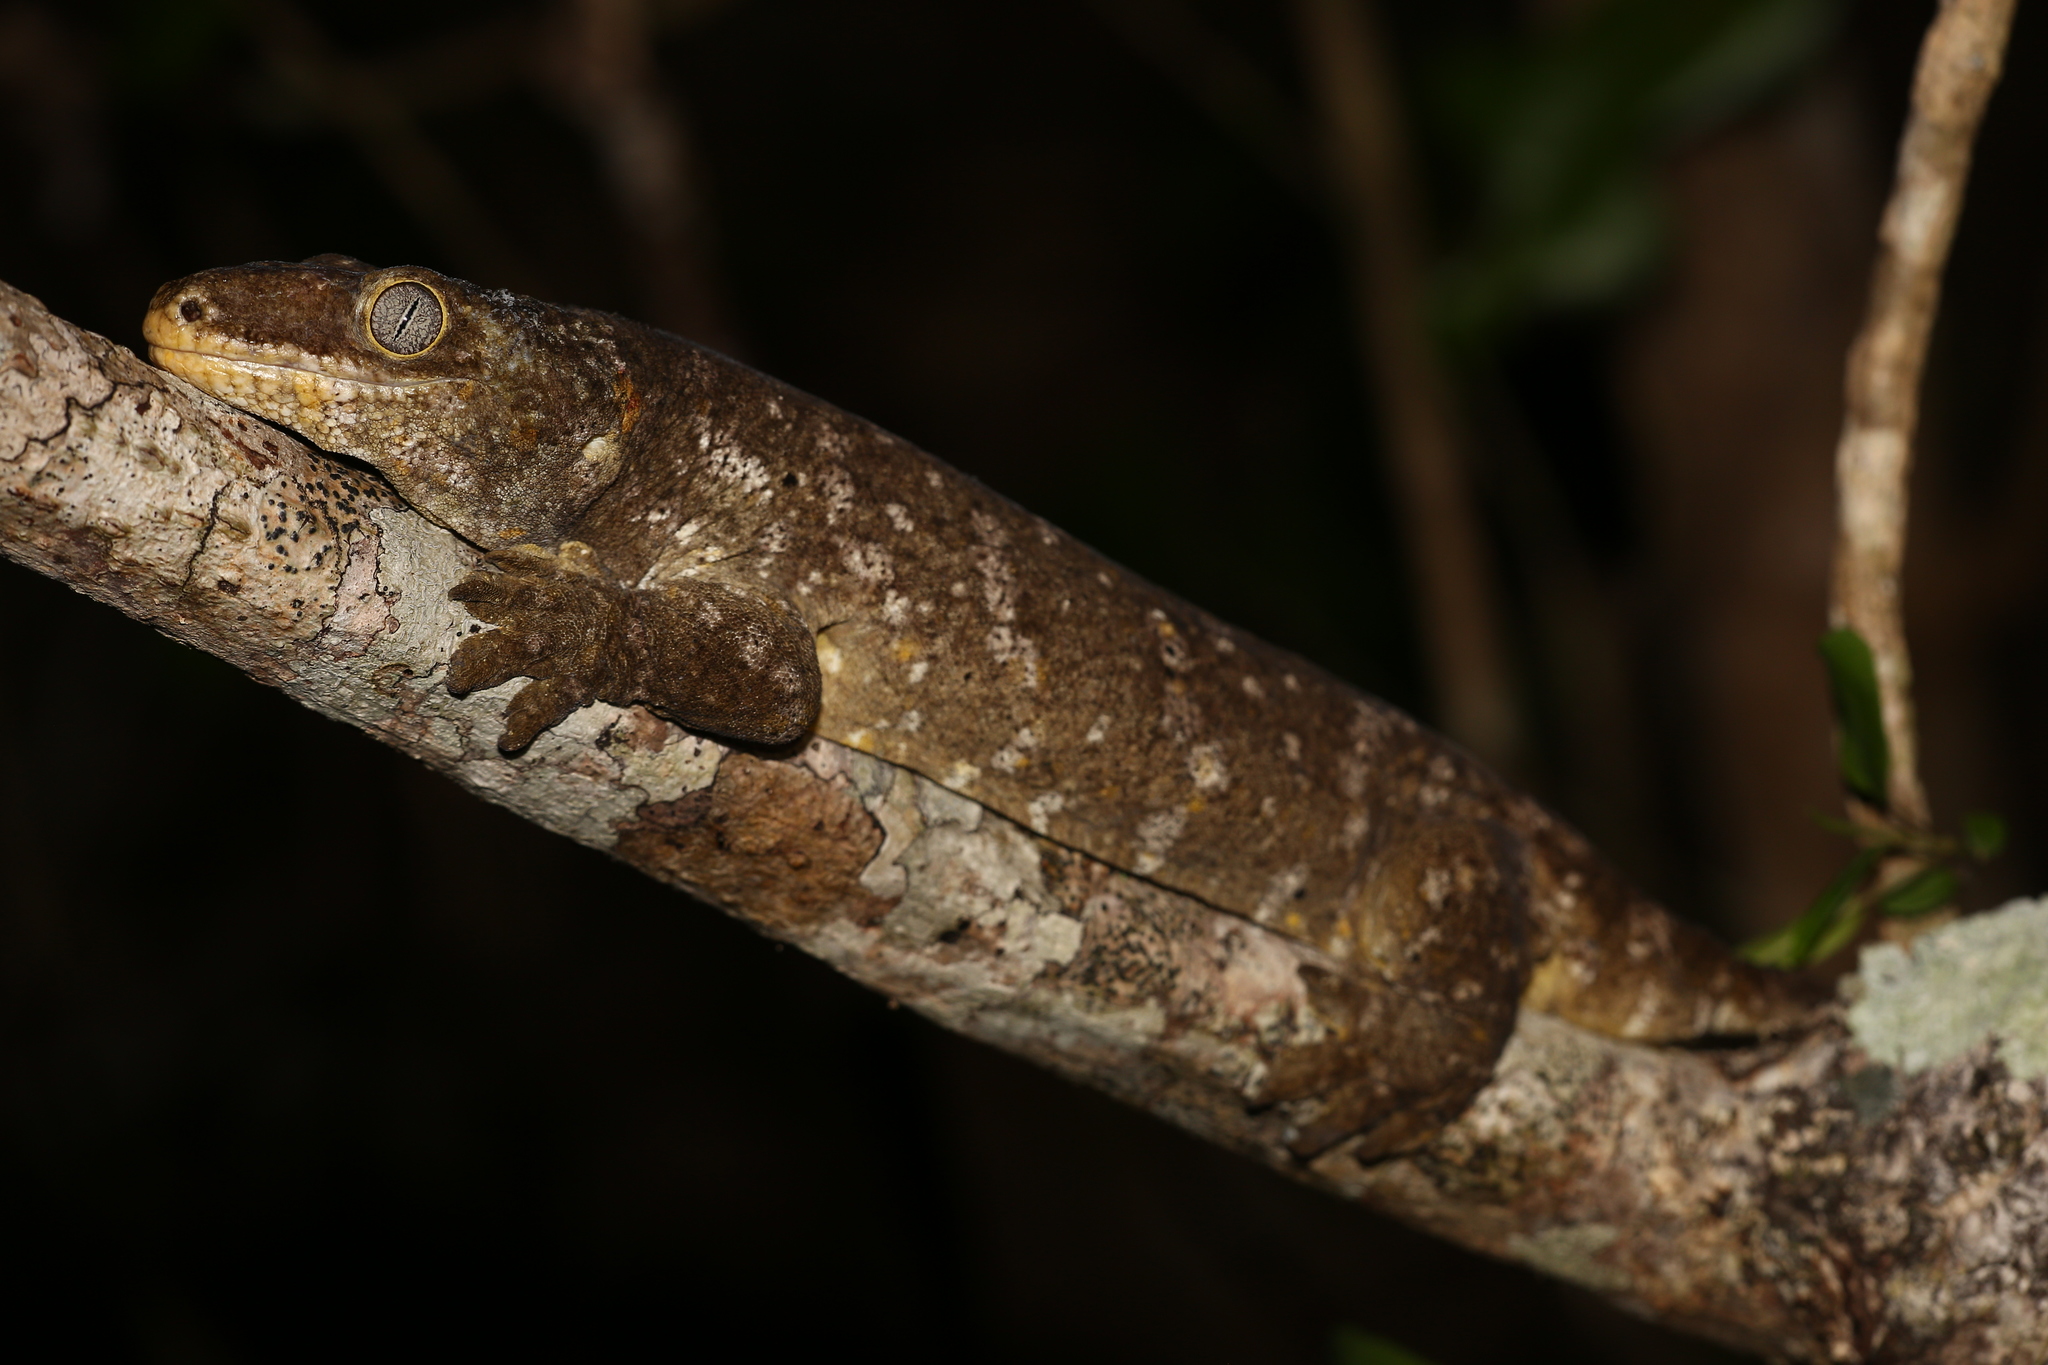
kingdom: Animalia
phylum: Chordata
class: Squamata
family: Diplodactylidae
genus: Rhacodactylus
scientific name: Rhacodactylus leachianus
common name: New caledonia giant gecko
